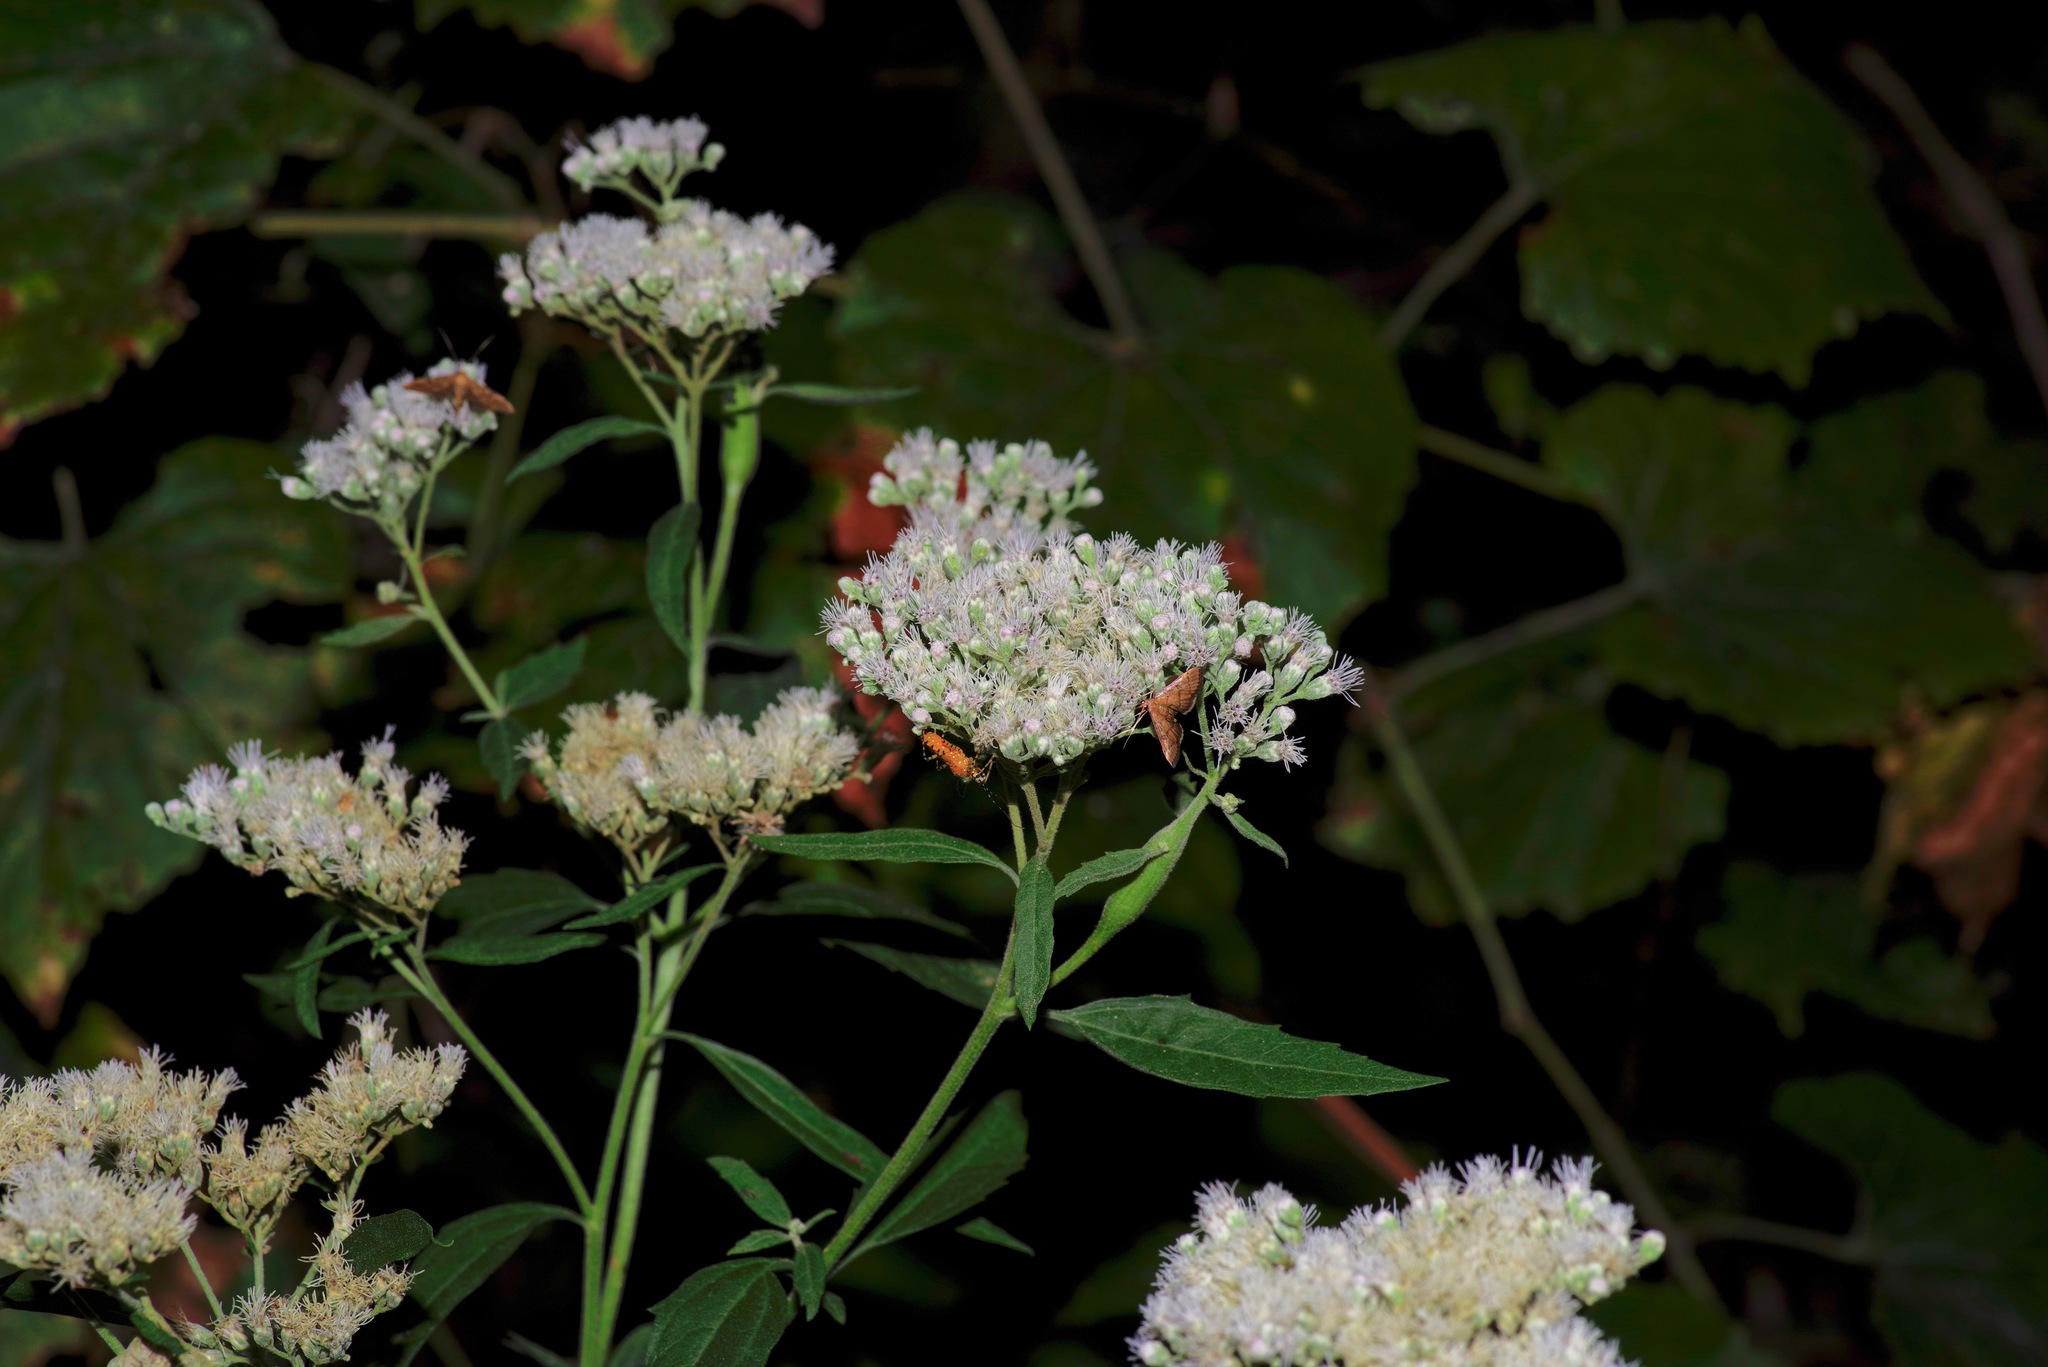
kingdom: Plantae
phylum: Tracheophyta
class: Magnoliopsida
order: Asterales
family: Asteraceae
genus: Eupatorium
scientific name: Eupatorium serotinum
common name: Late boneset
